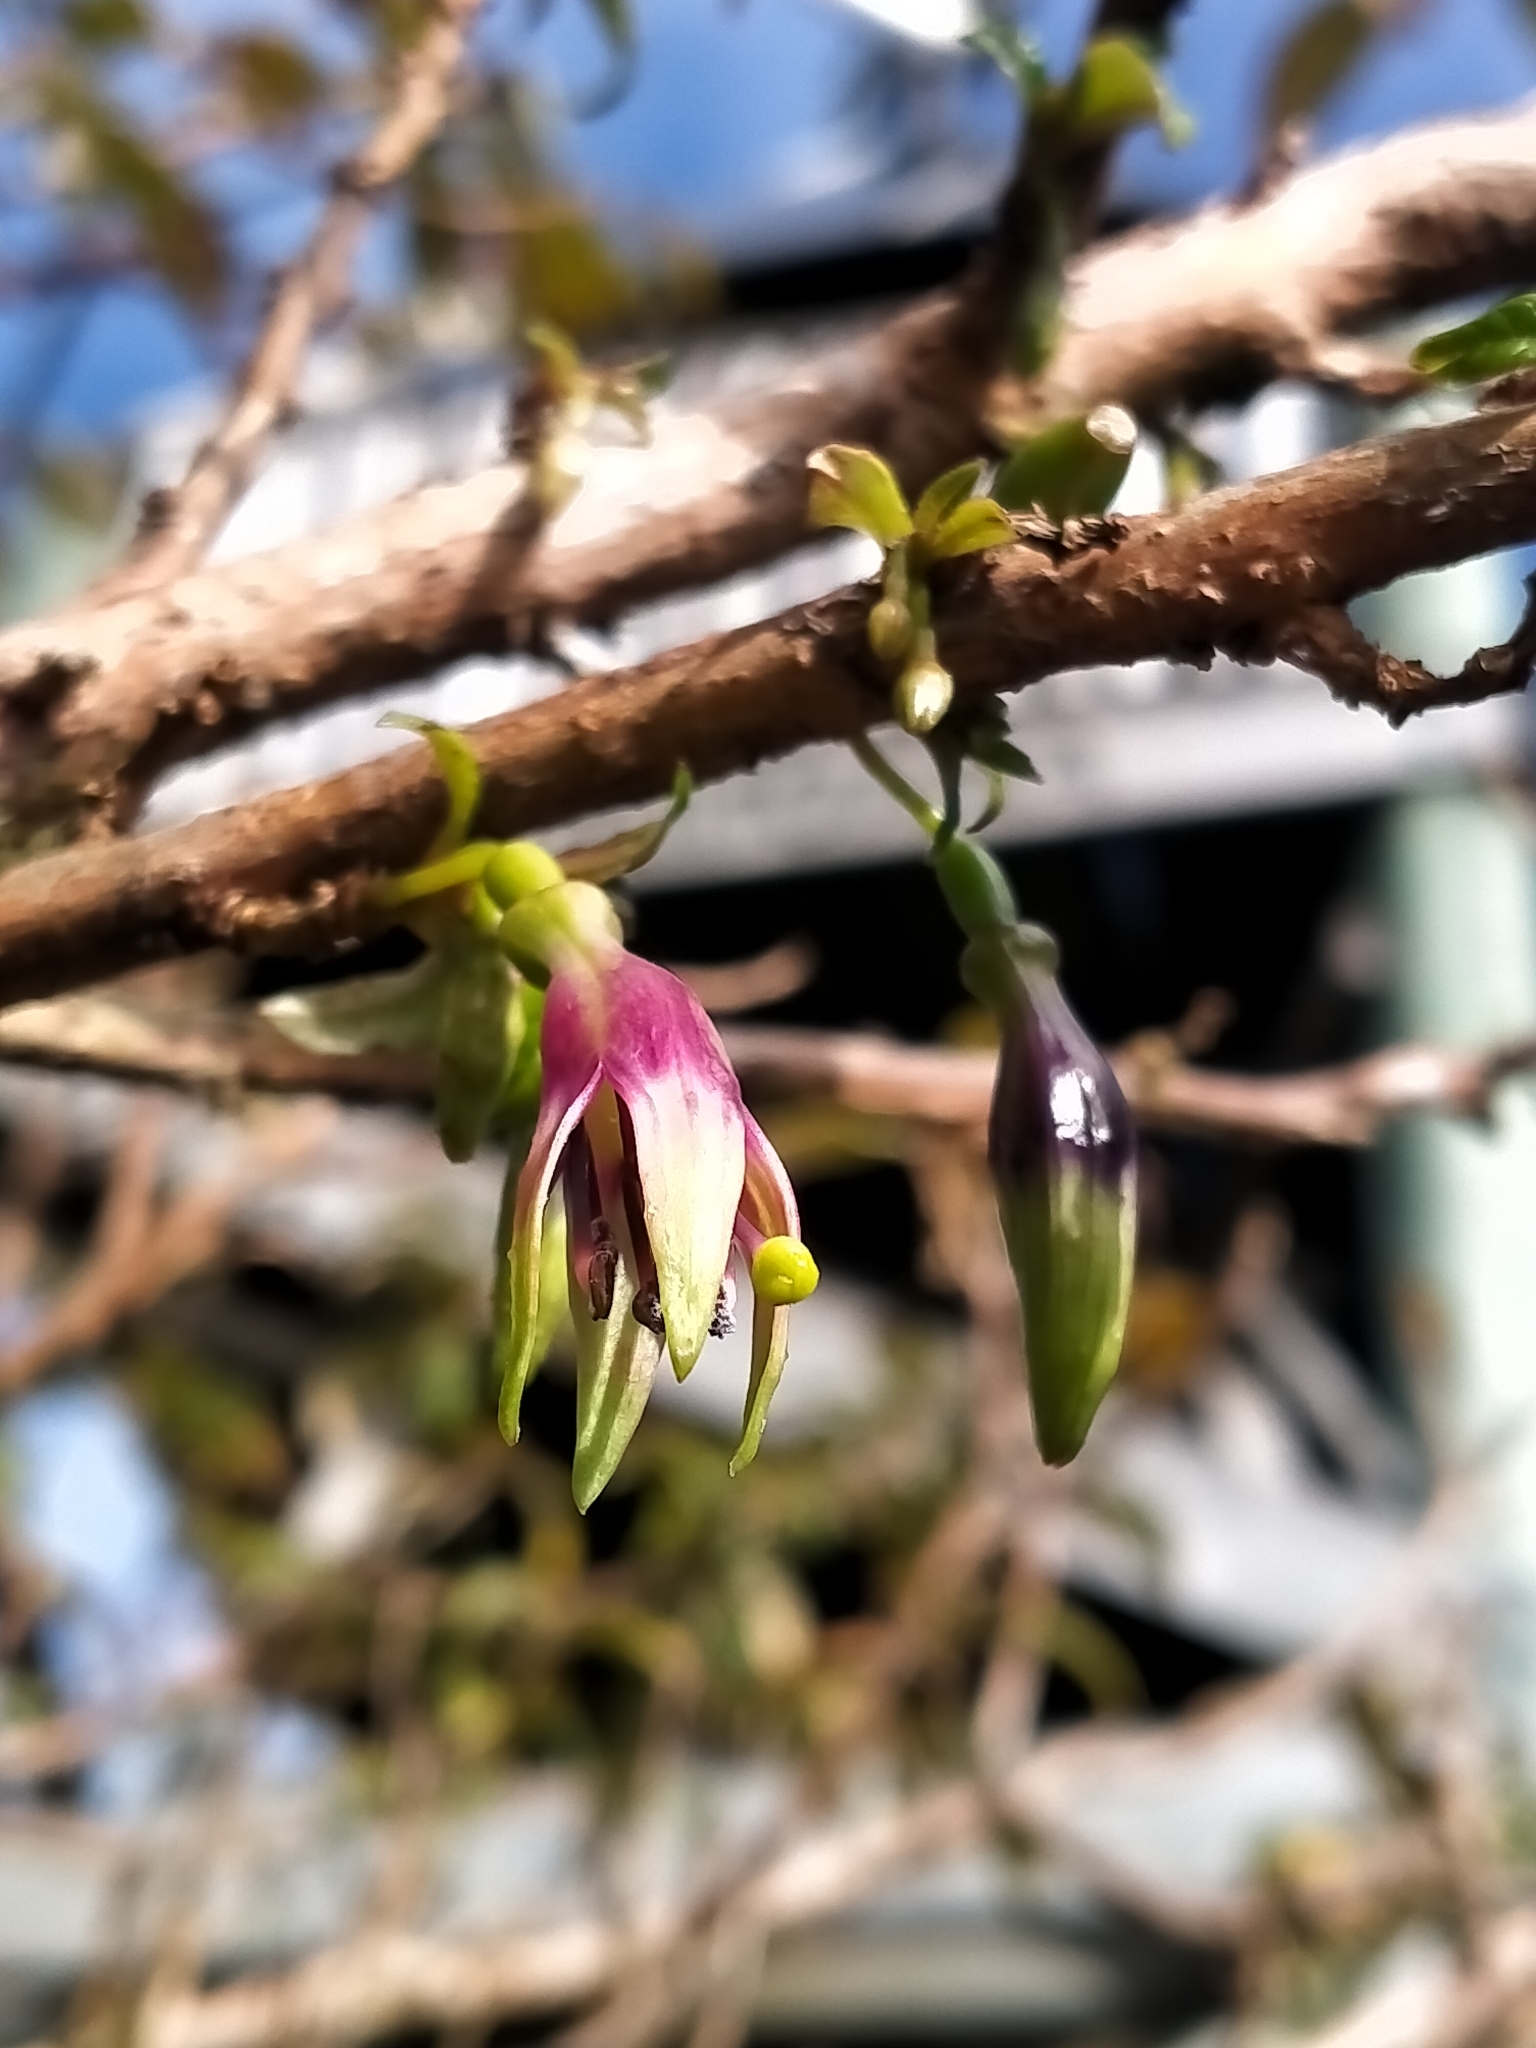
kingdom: Plantae
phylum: Tracheophyta
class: Magnoliopsida
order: Myrtales
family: Onagraceae
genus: Fuchsia
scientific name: Fuchsia excorticata
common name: Tree fuchsia
